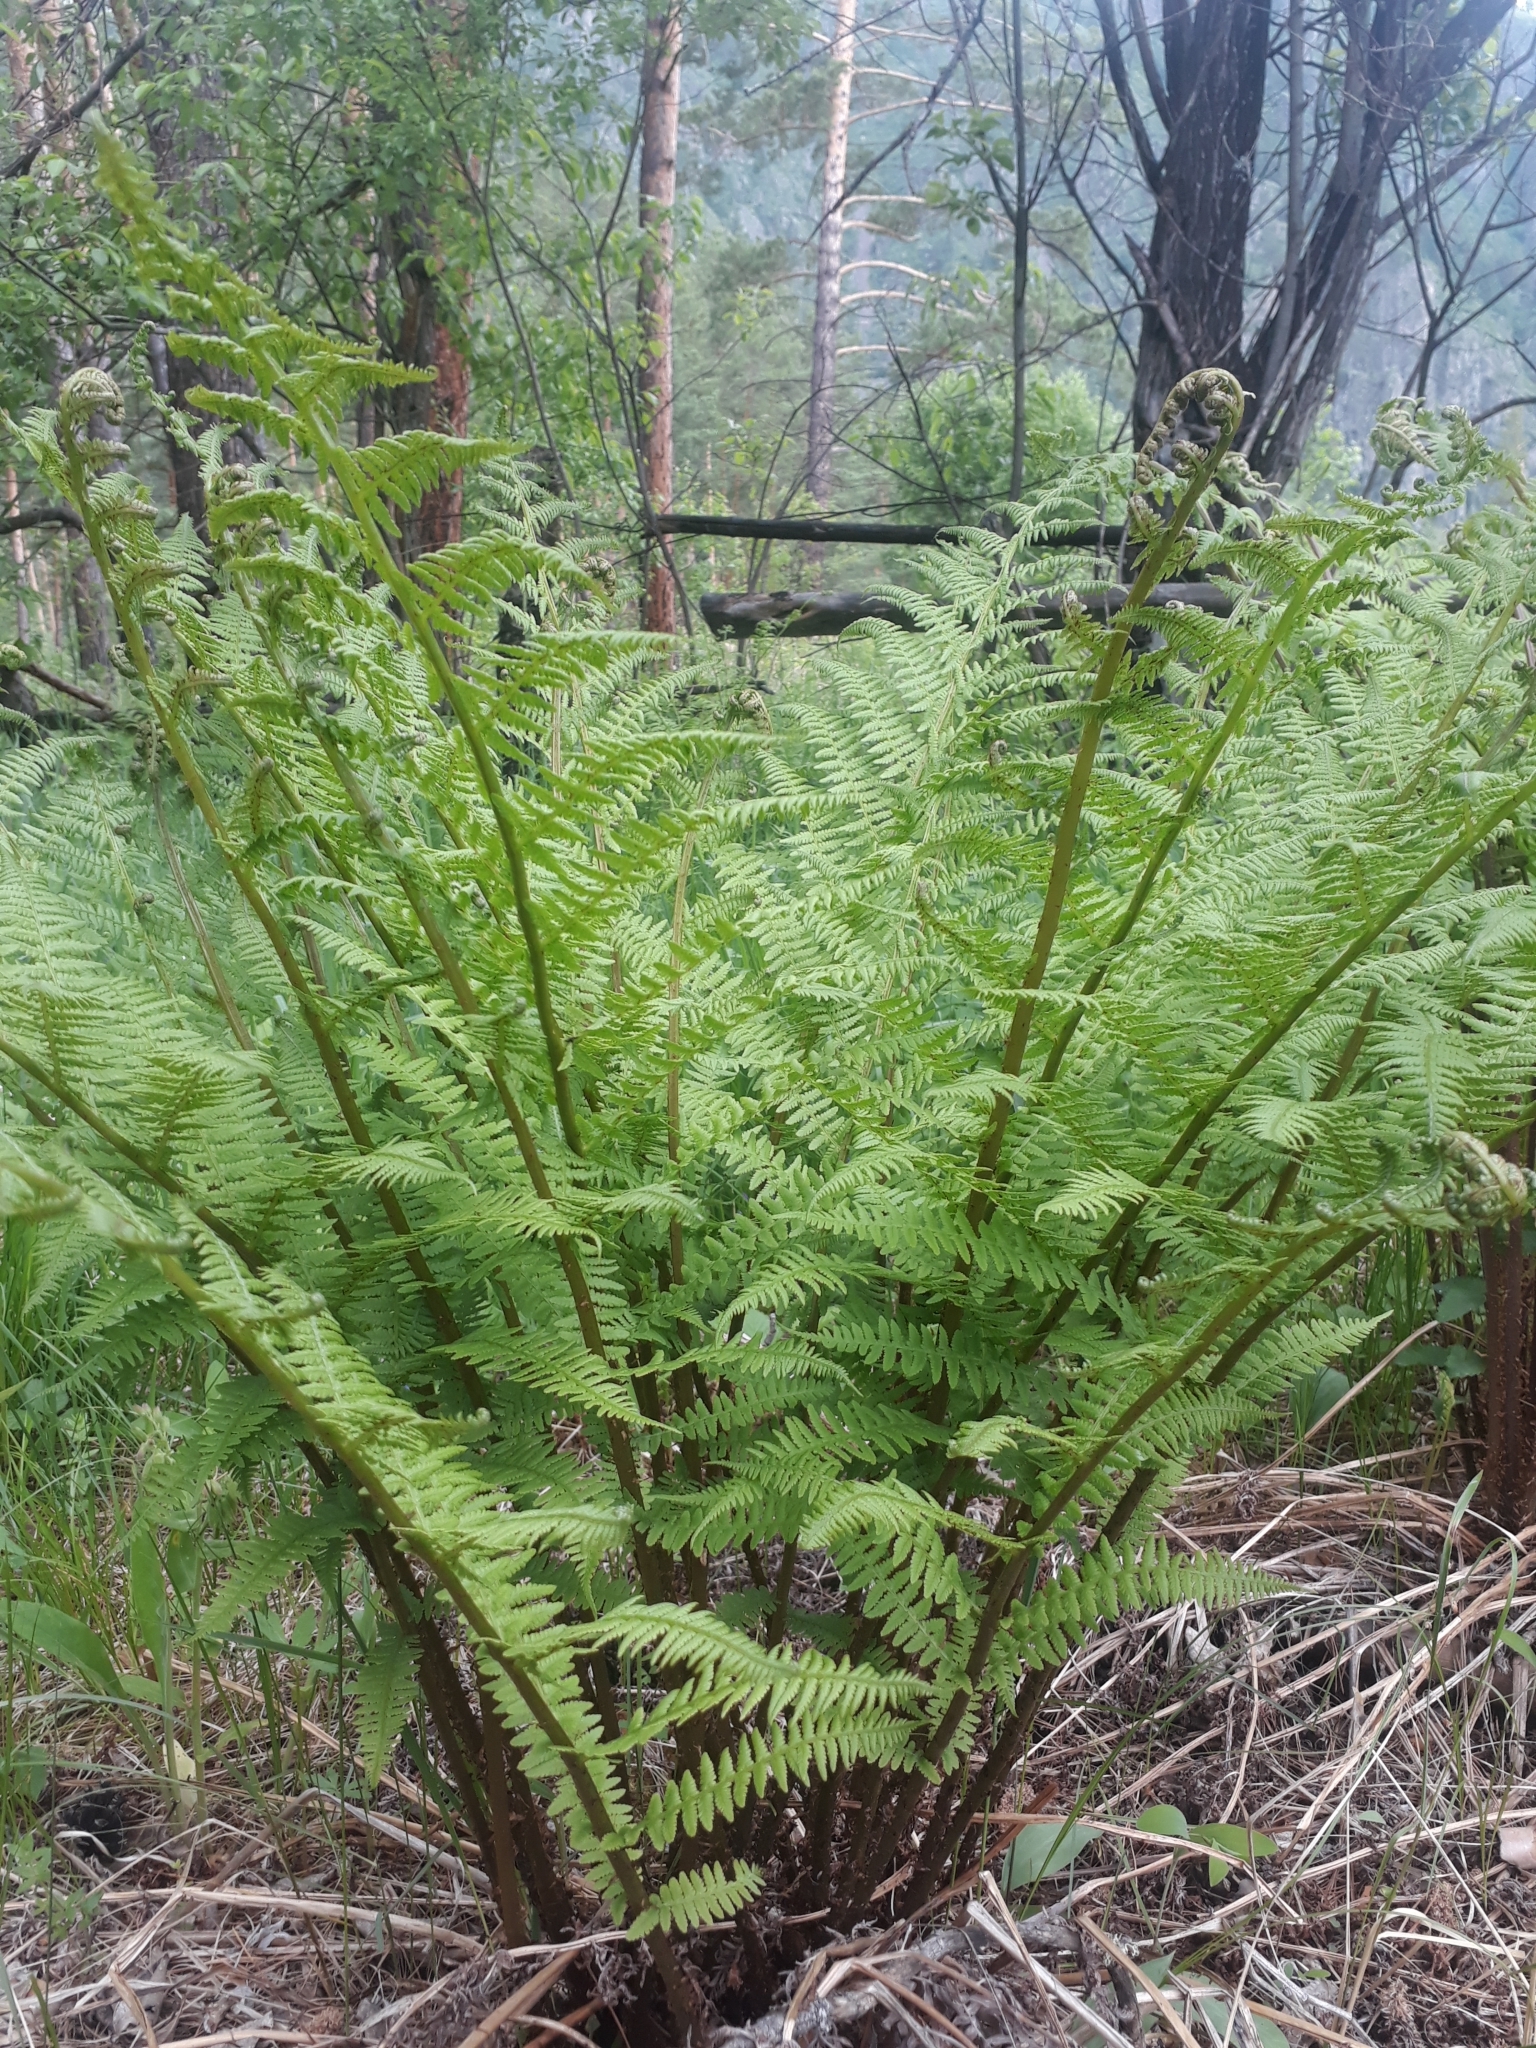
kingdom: Plantae
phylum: Tracheophyta
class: Polypodiopsida
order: Polypodiales
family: Athyriaceae
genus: Athyrium
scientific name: Athyrium filix-femina
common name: Lady fern
